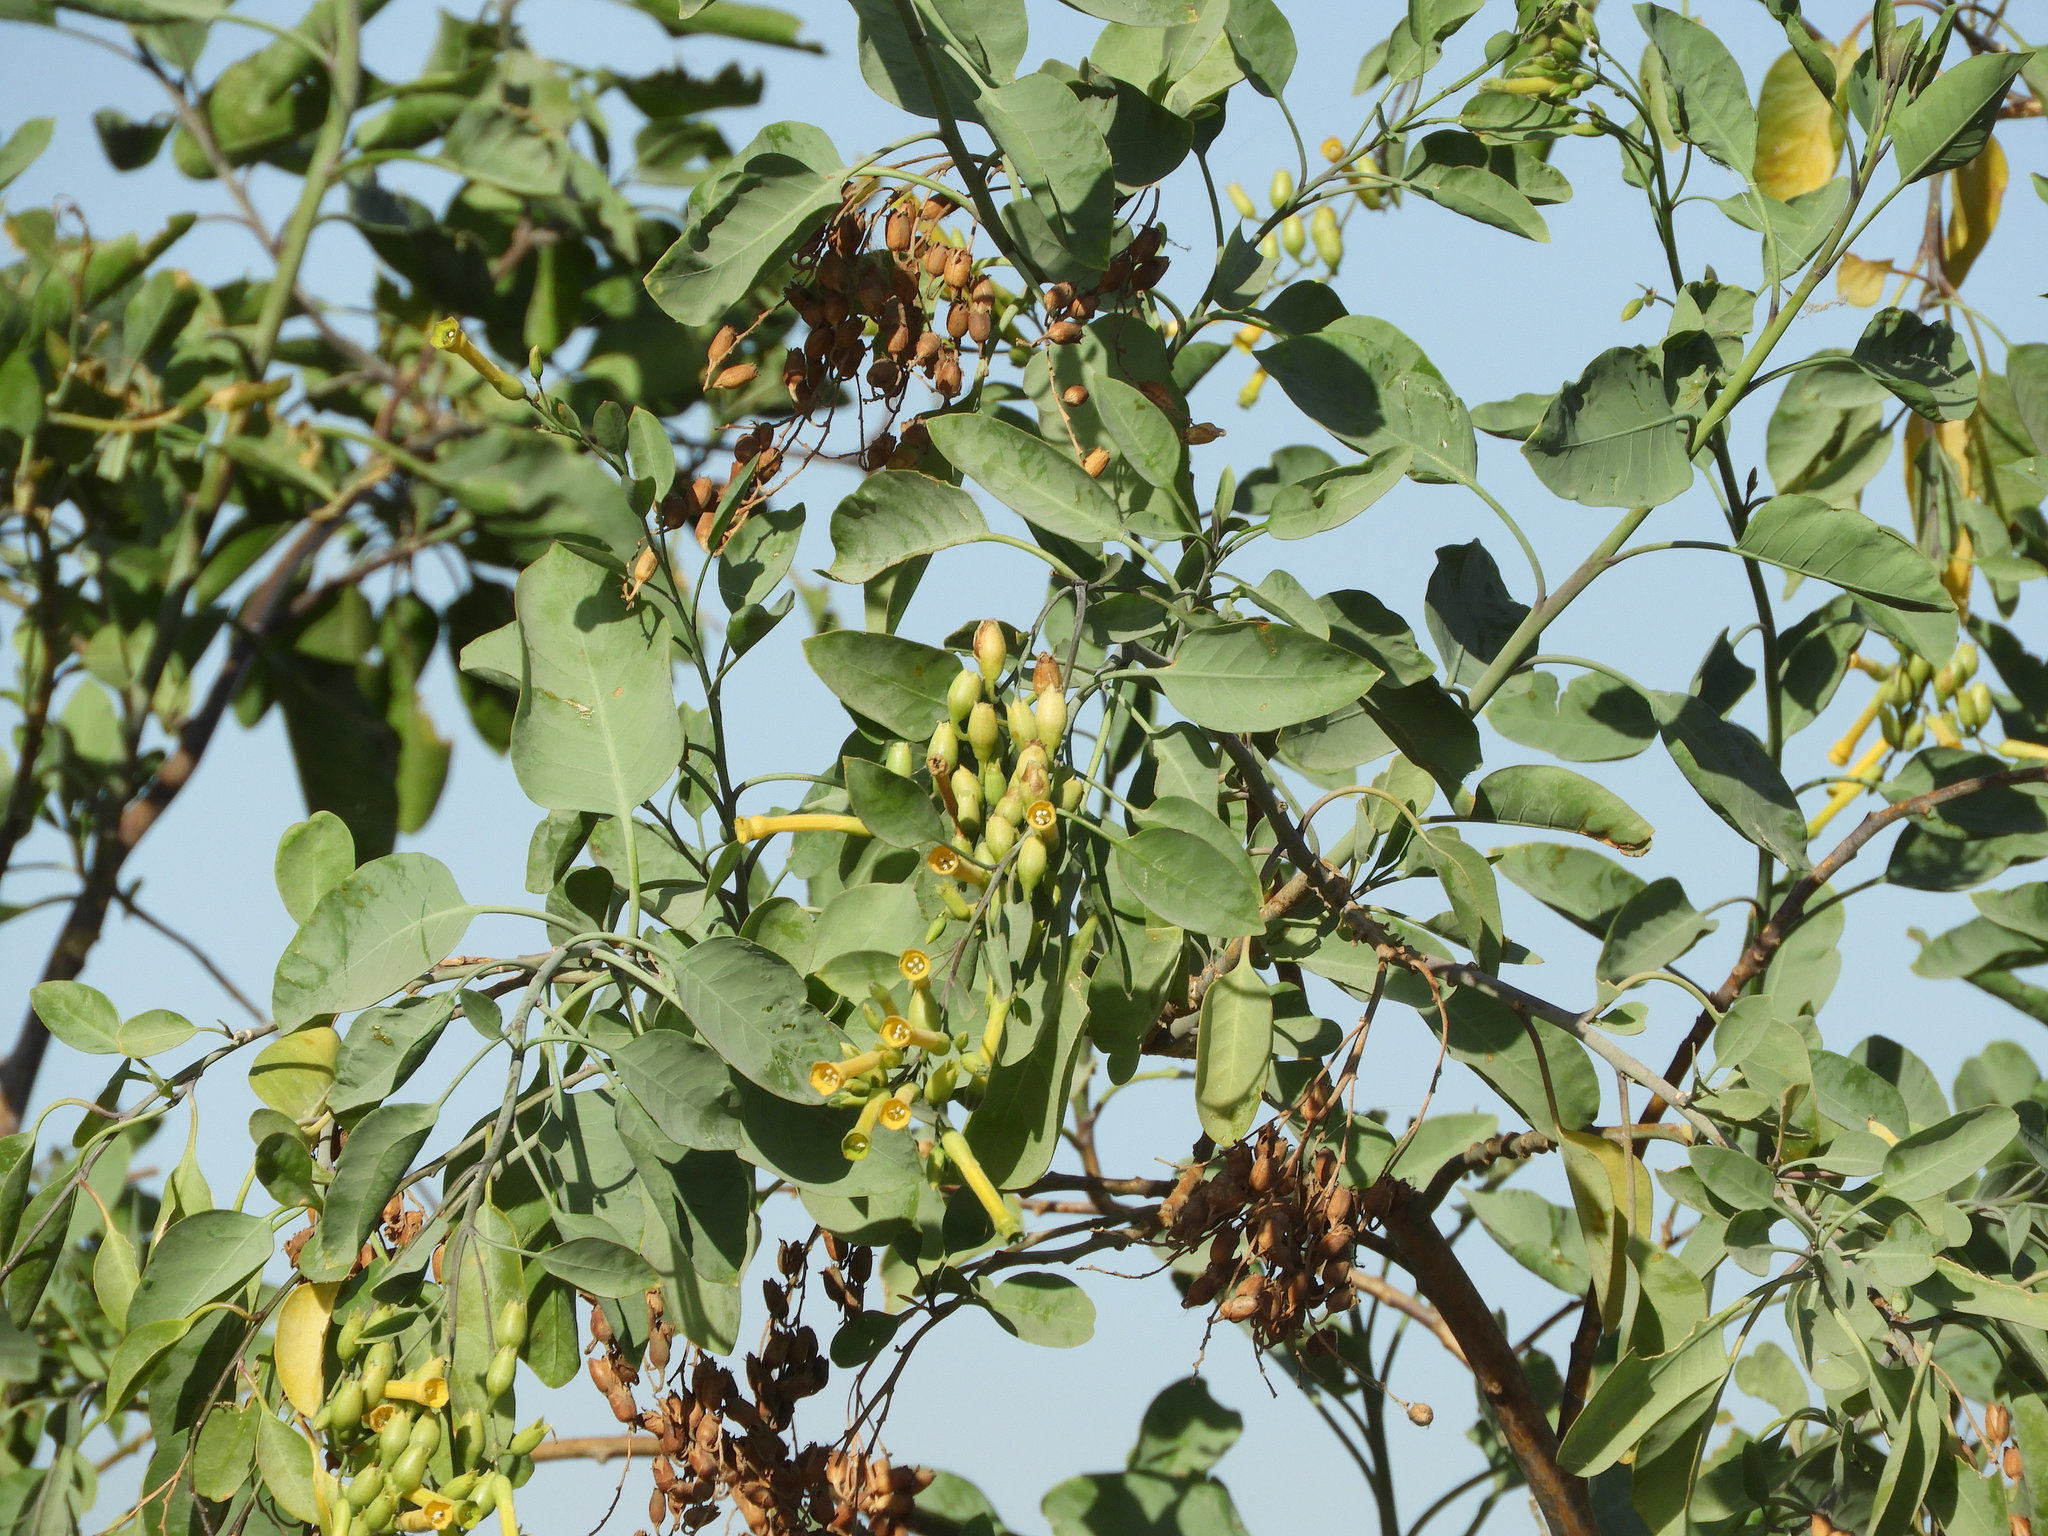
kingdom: Plantae
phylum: Tracheophyta
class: Magnoliopsida
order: Solanales
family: Solanaceae
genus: Nicotiana
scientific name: Nicotiana glauca
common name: Tree tobacco
